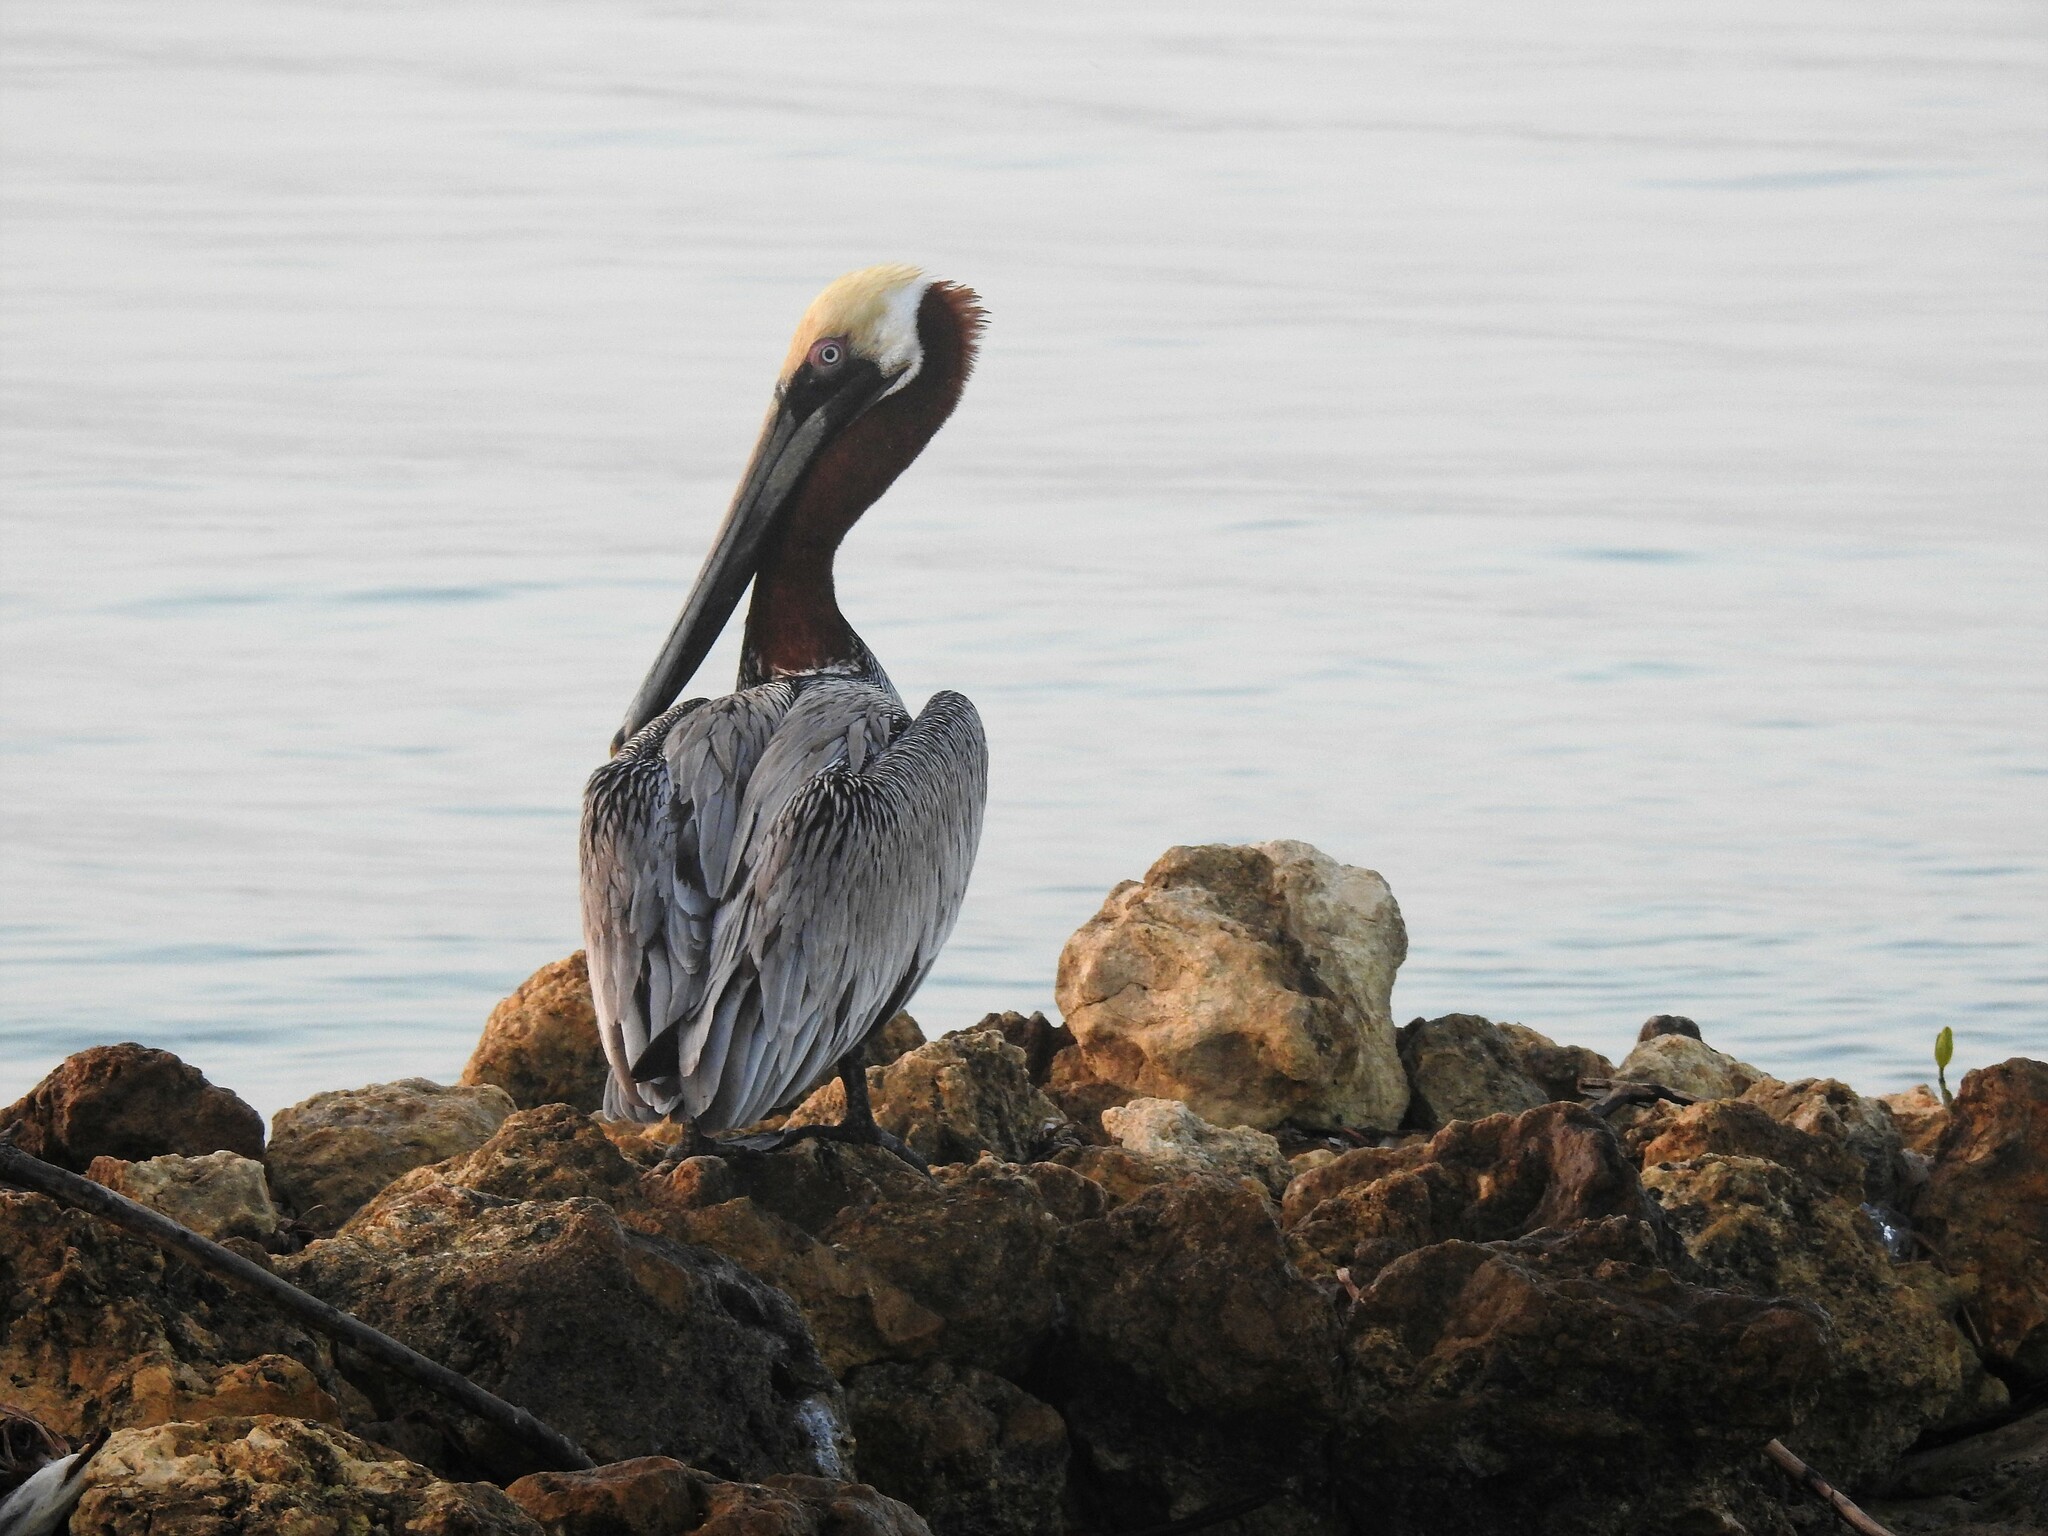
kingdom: Animalia
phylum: Chordata
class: Aves
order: Pelecaniformes
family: Pelecanidae
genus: Pelecanus
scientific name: Pelecanus occidentalis
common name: Brown pelican
